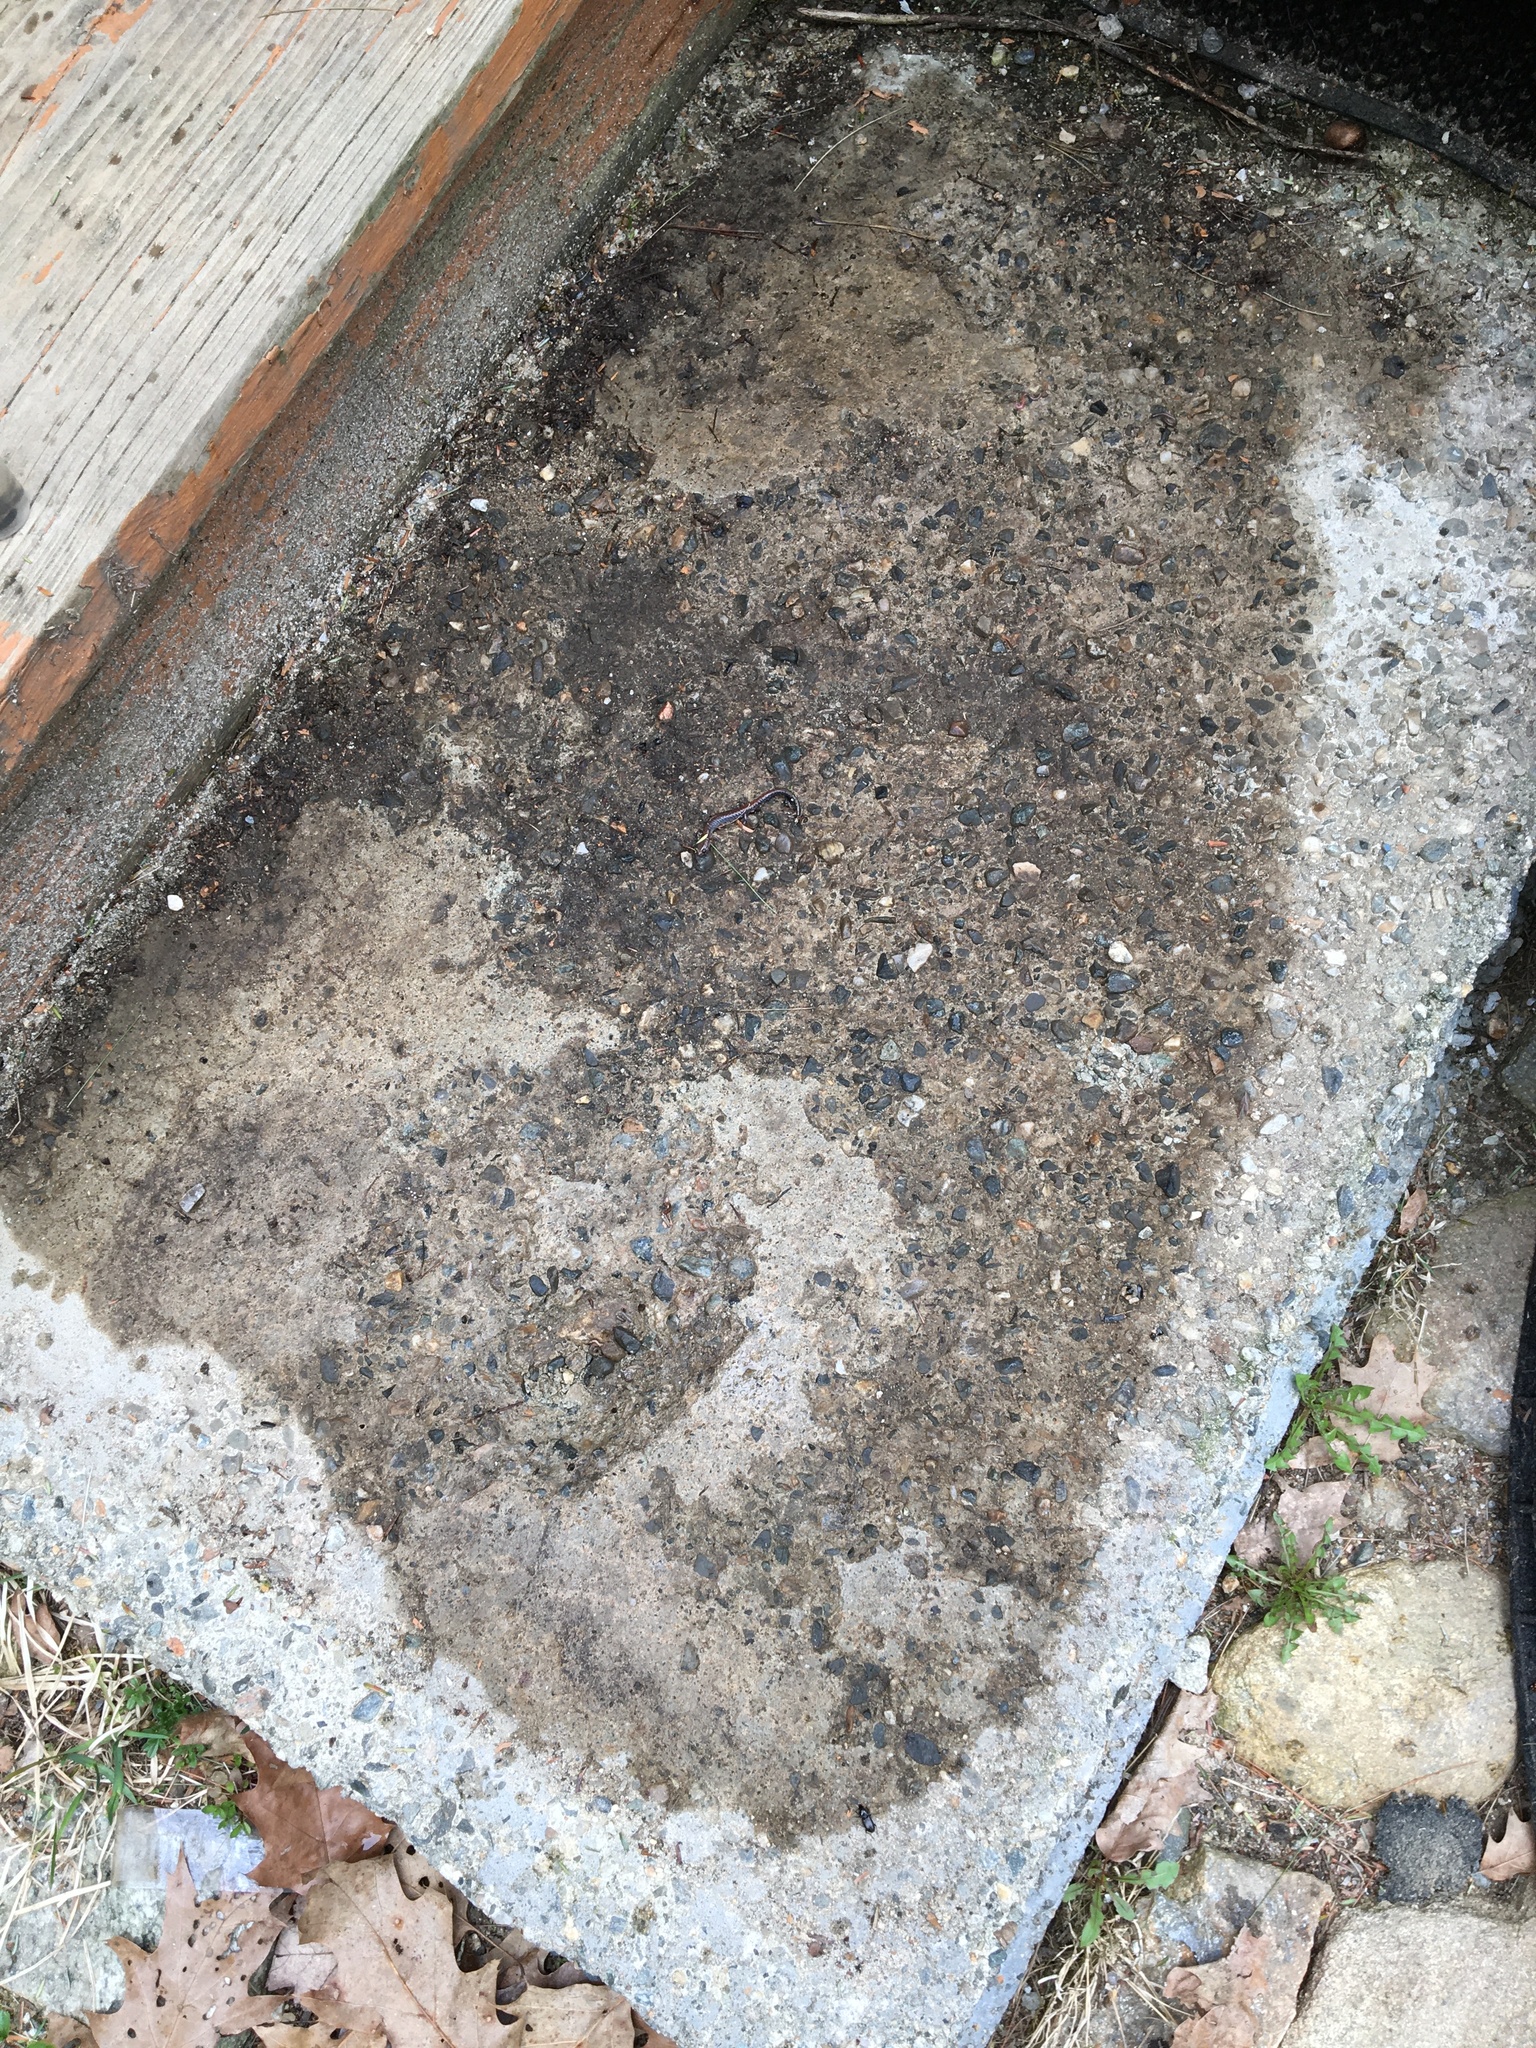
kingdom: Animalia
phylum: Chordata
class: Amphibia
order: Caudata
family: Plethodontidae
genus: Plethodon
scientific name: Plethodon cinereus
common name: Redback salamander
